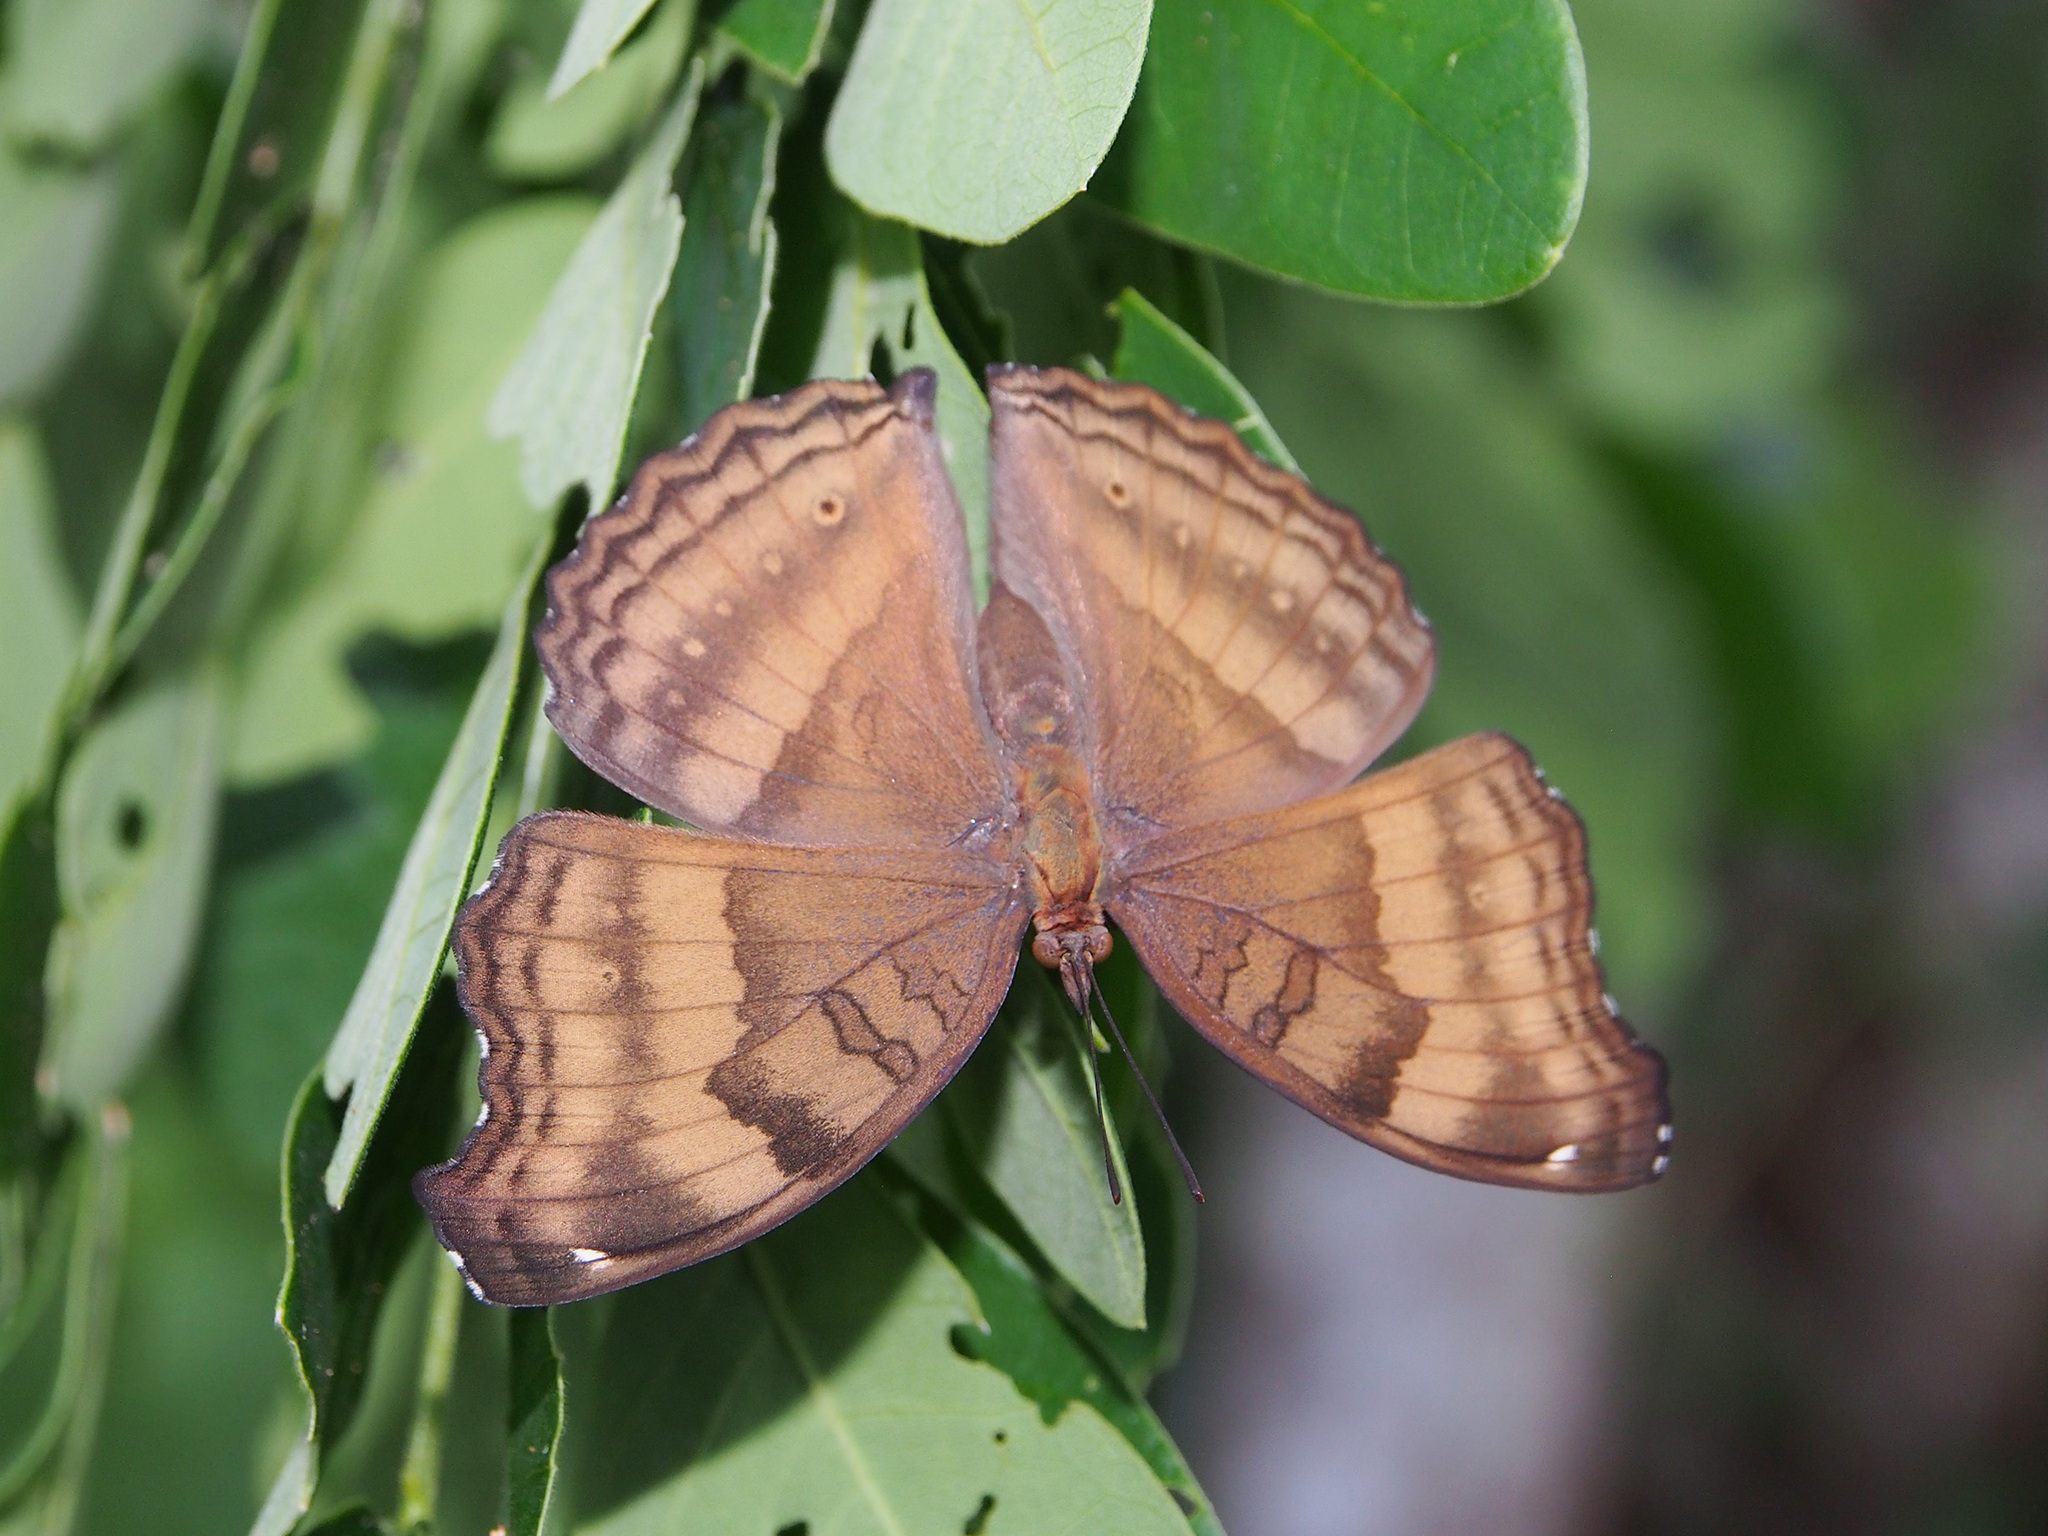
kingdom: Animalia
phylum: Arthropoda
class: Insecta
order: Lepidoptera
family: Nymphalidae
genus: Junonia
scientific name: Junonia iphita
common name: Chocolate pansy
